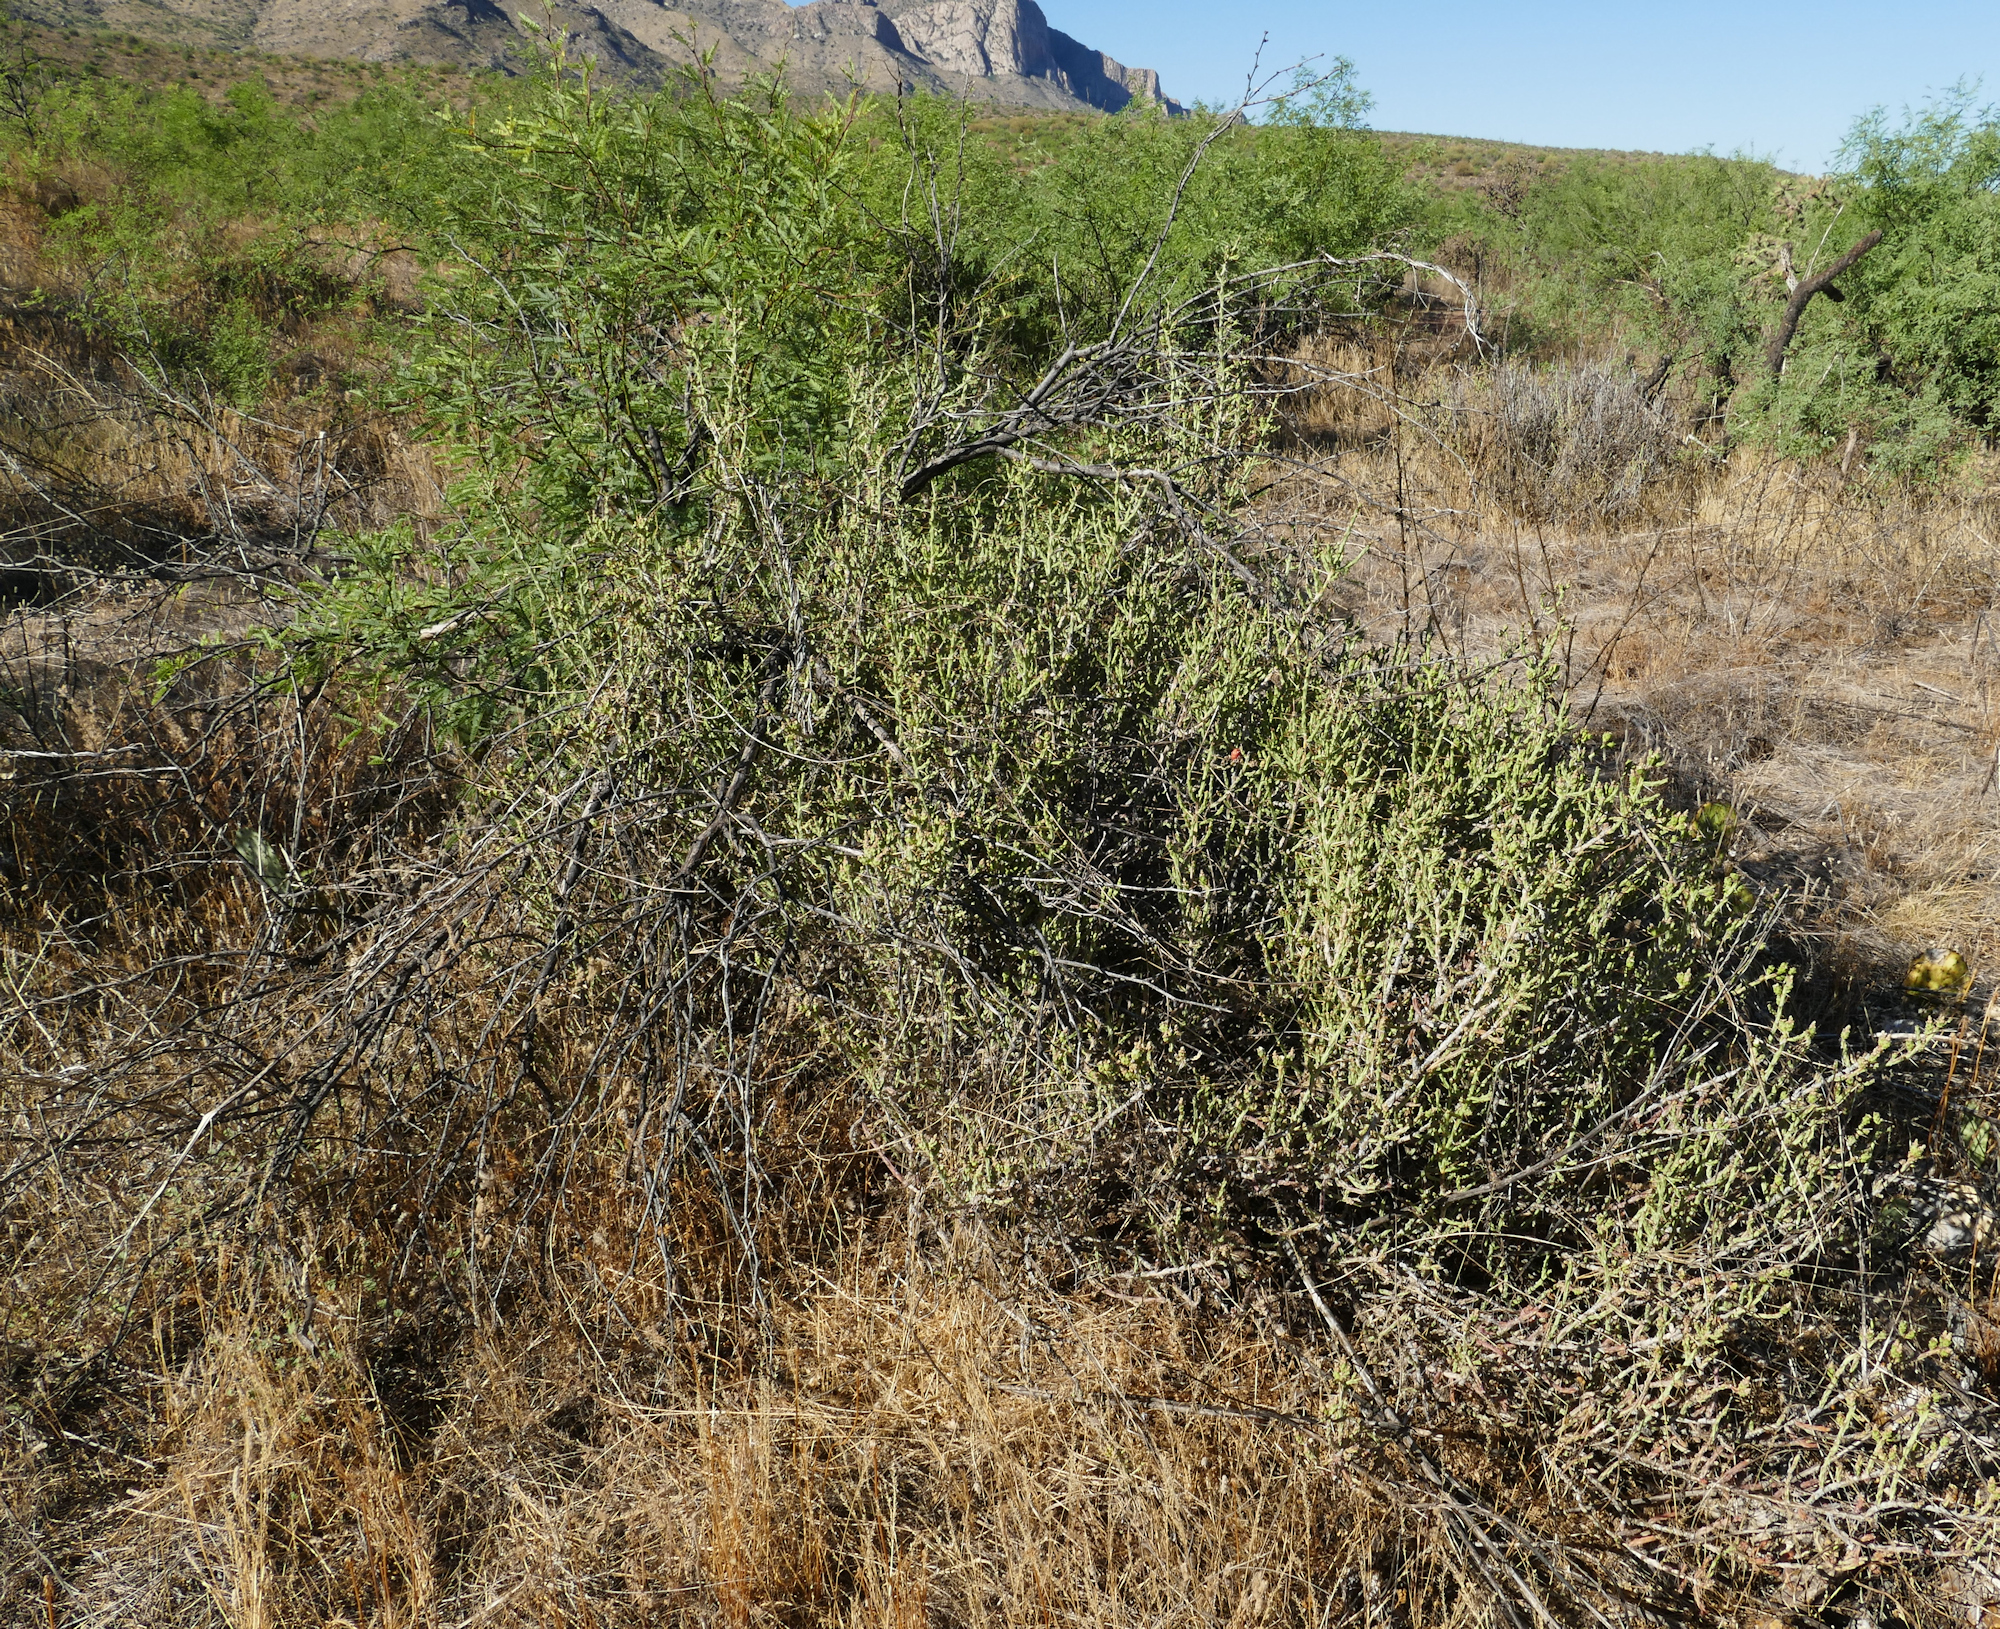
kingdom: Plantae
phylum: Tracheophyta
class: Magnoliopsida
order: Caryophyllales
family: Cactaceae
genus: Cylindropuntia
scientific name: Cylindropuntia leptocaulis
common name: Christmas cactus
